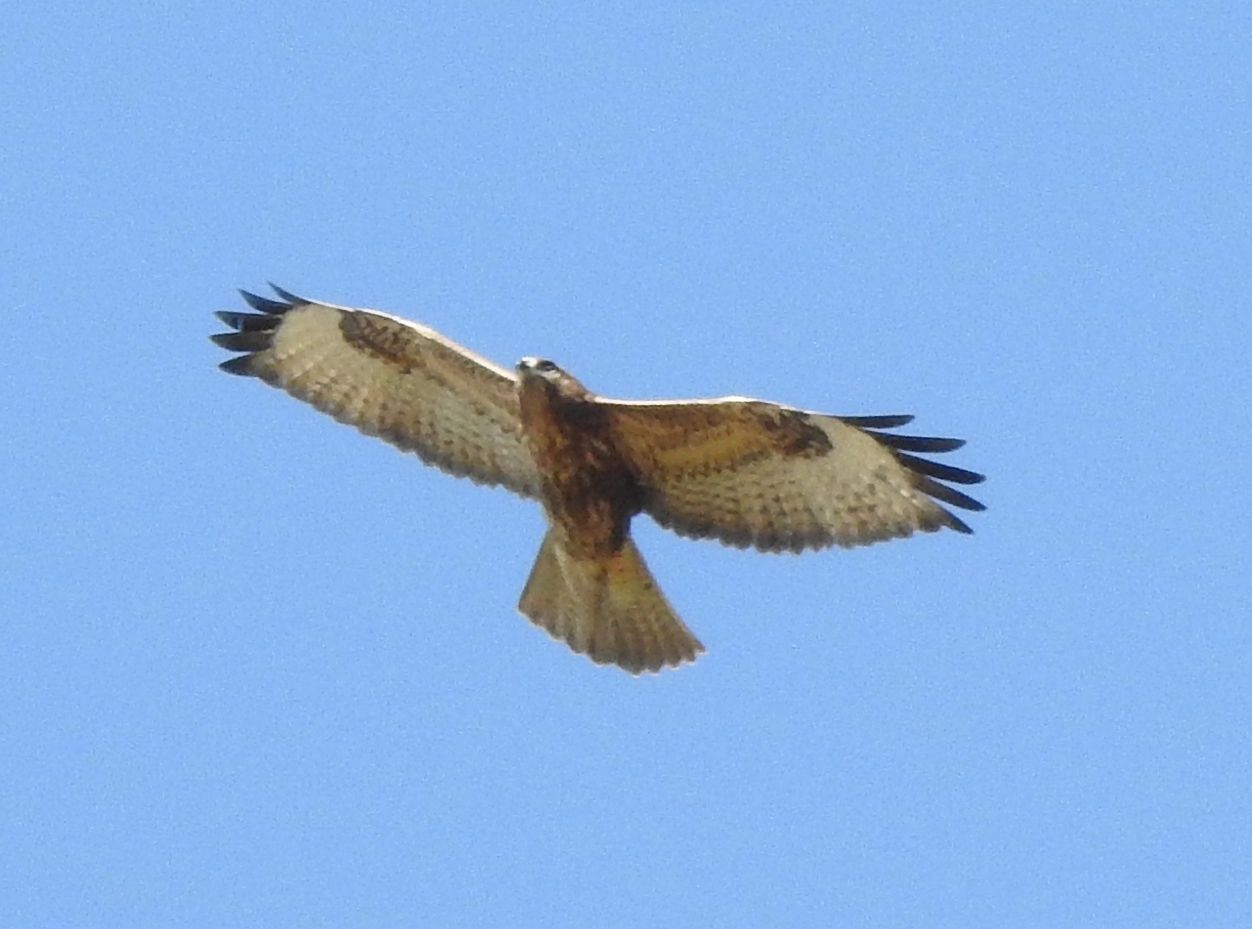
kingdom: Animalia
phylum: Chordata
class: Aves
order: Accipitriformes
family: Accipitridae
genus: Buteo
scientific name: Buteo japonicus
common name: Eastern buzzard
